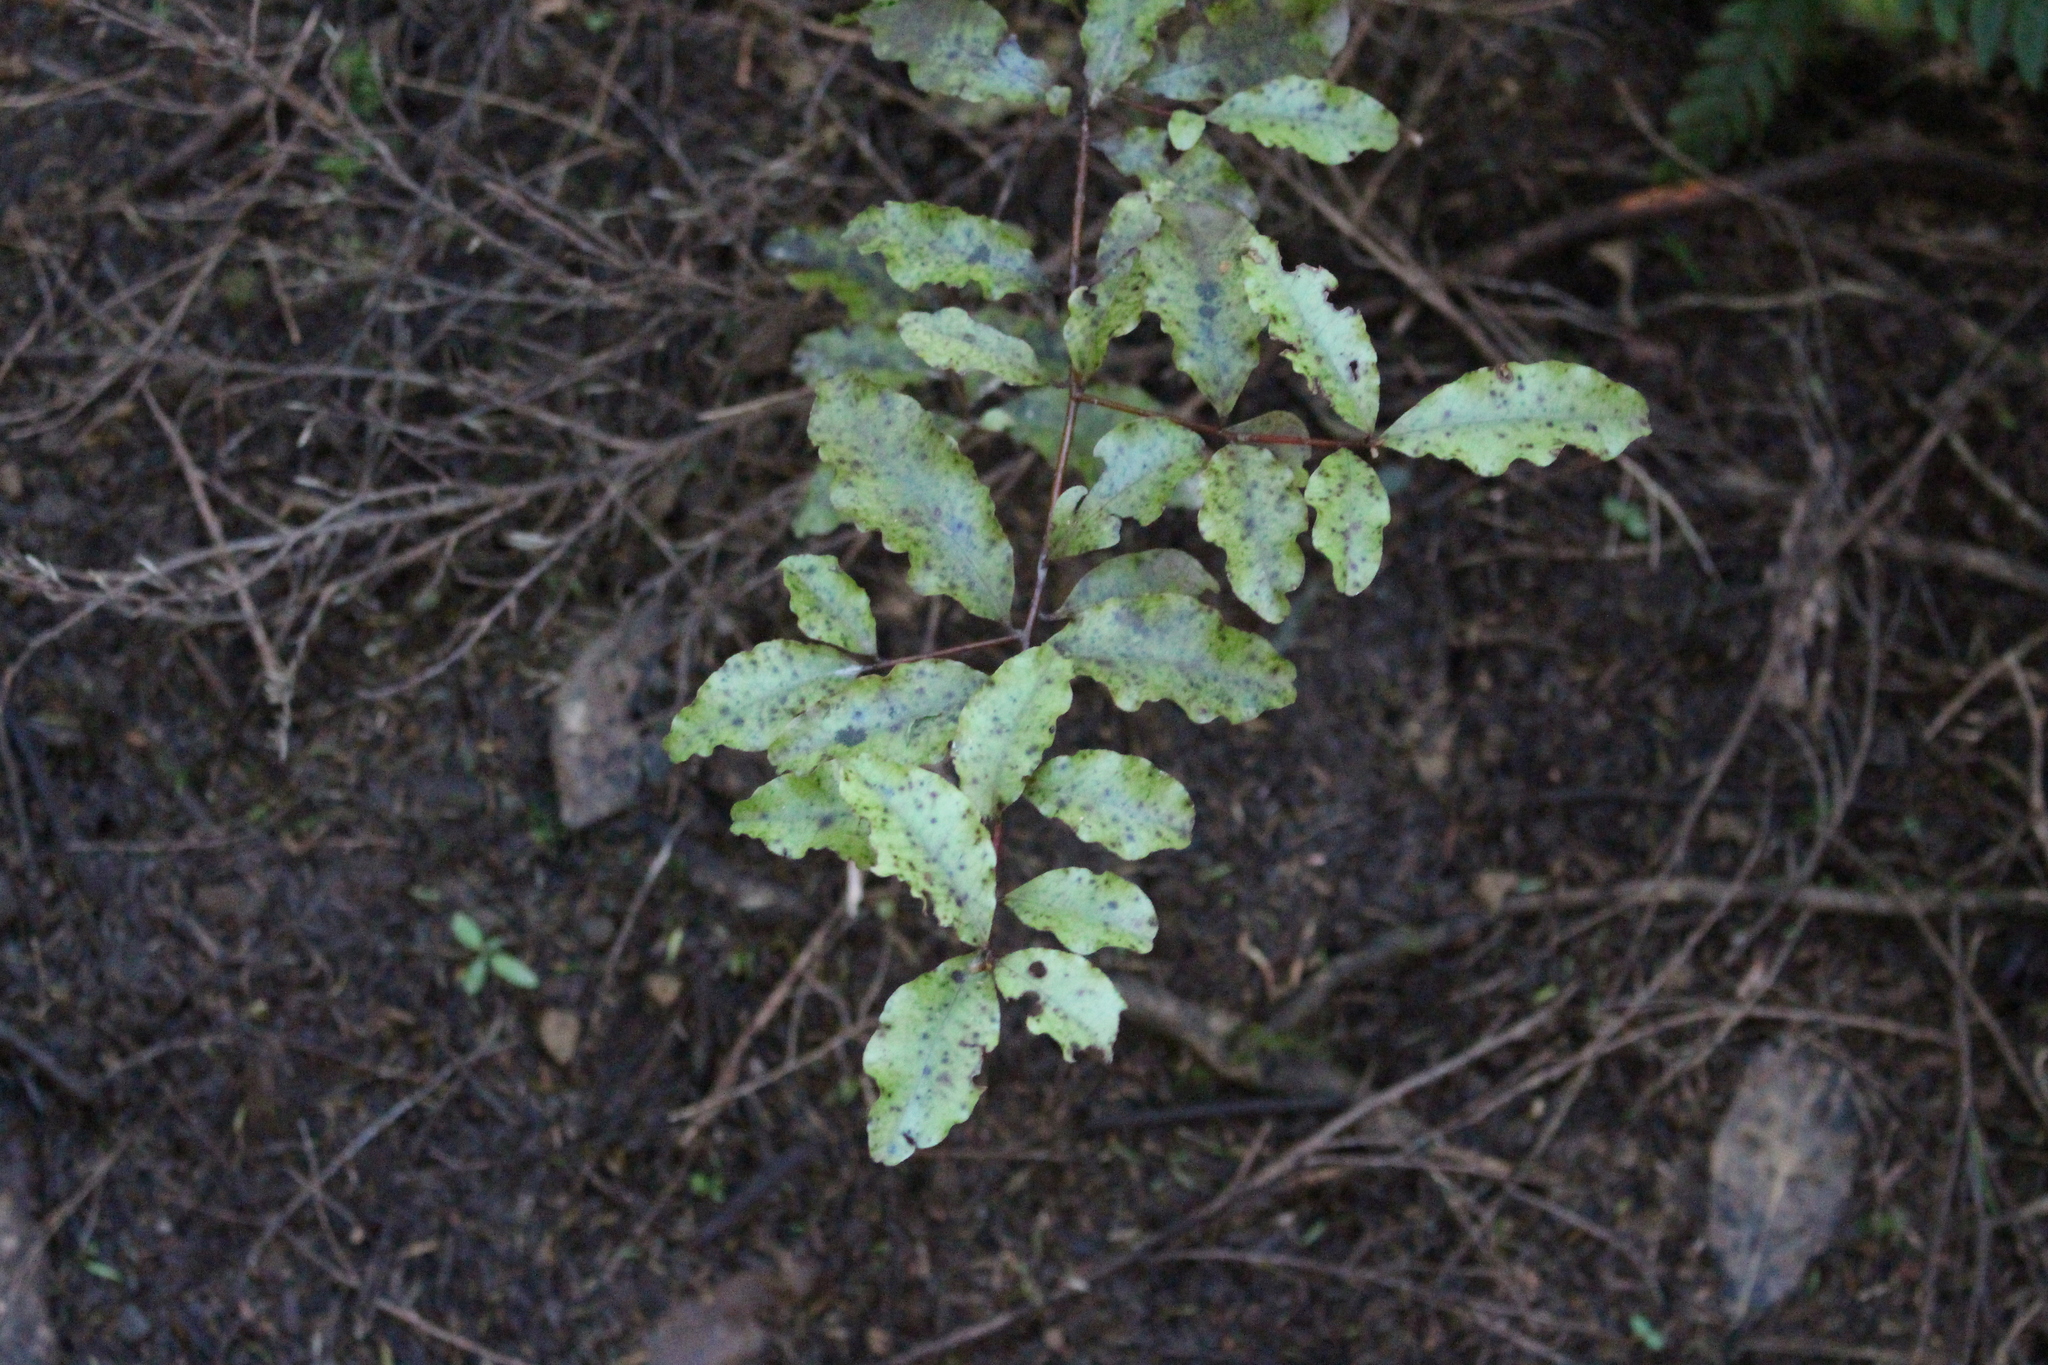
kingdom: Plantae
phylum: Tracheophyta
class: Magnoliopsida
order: Ericales
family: Primulaceae
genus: Myrsine
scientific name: Myrsine australis
